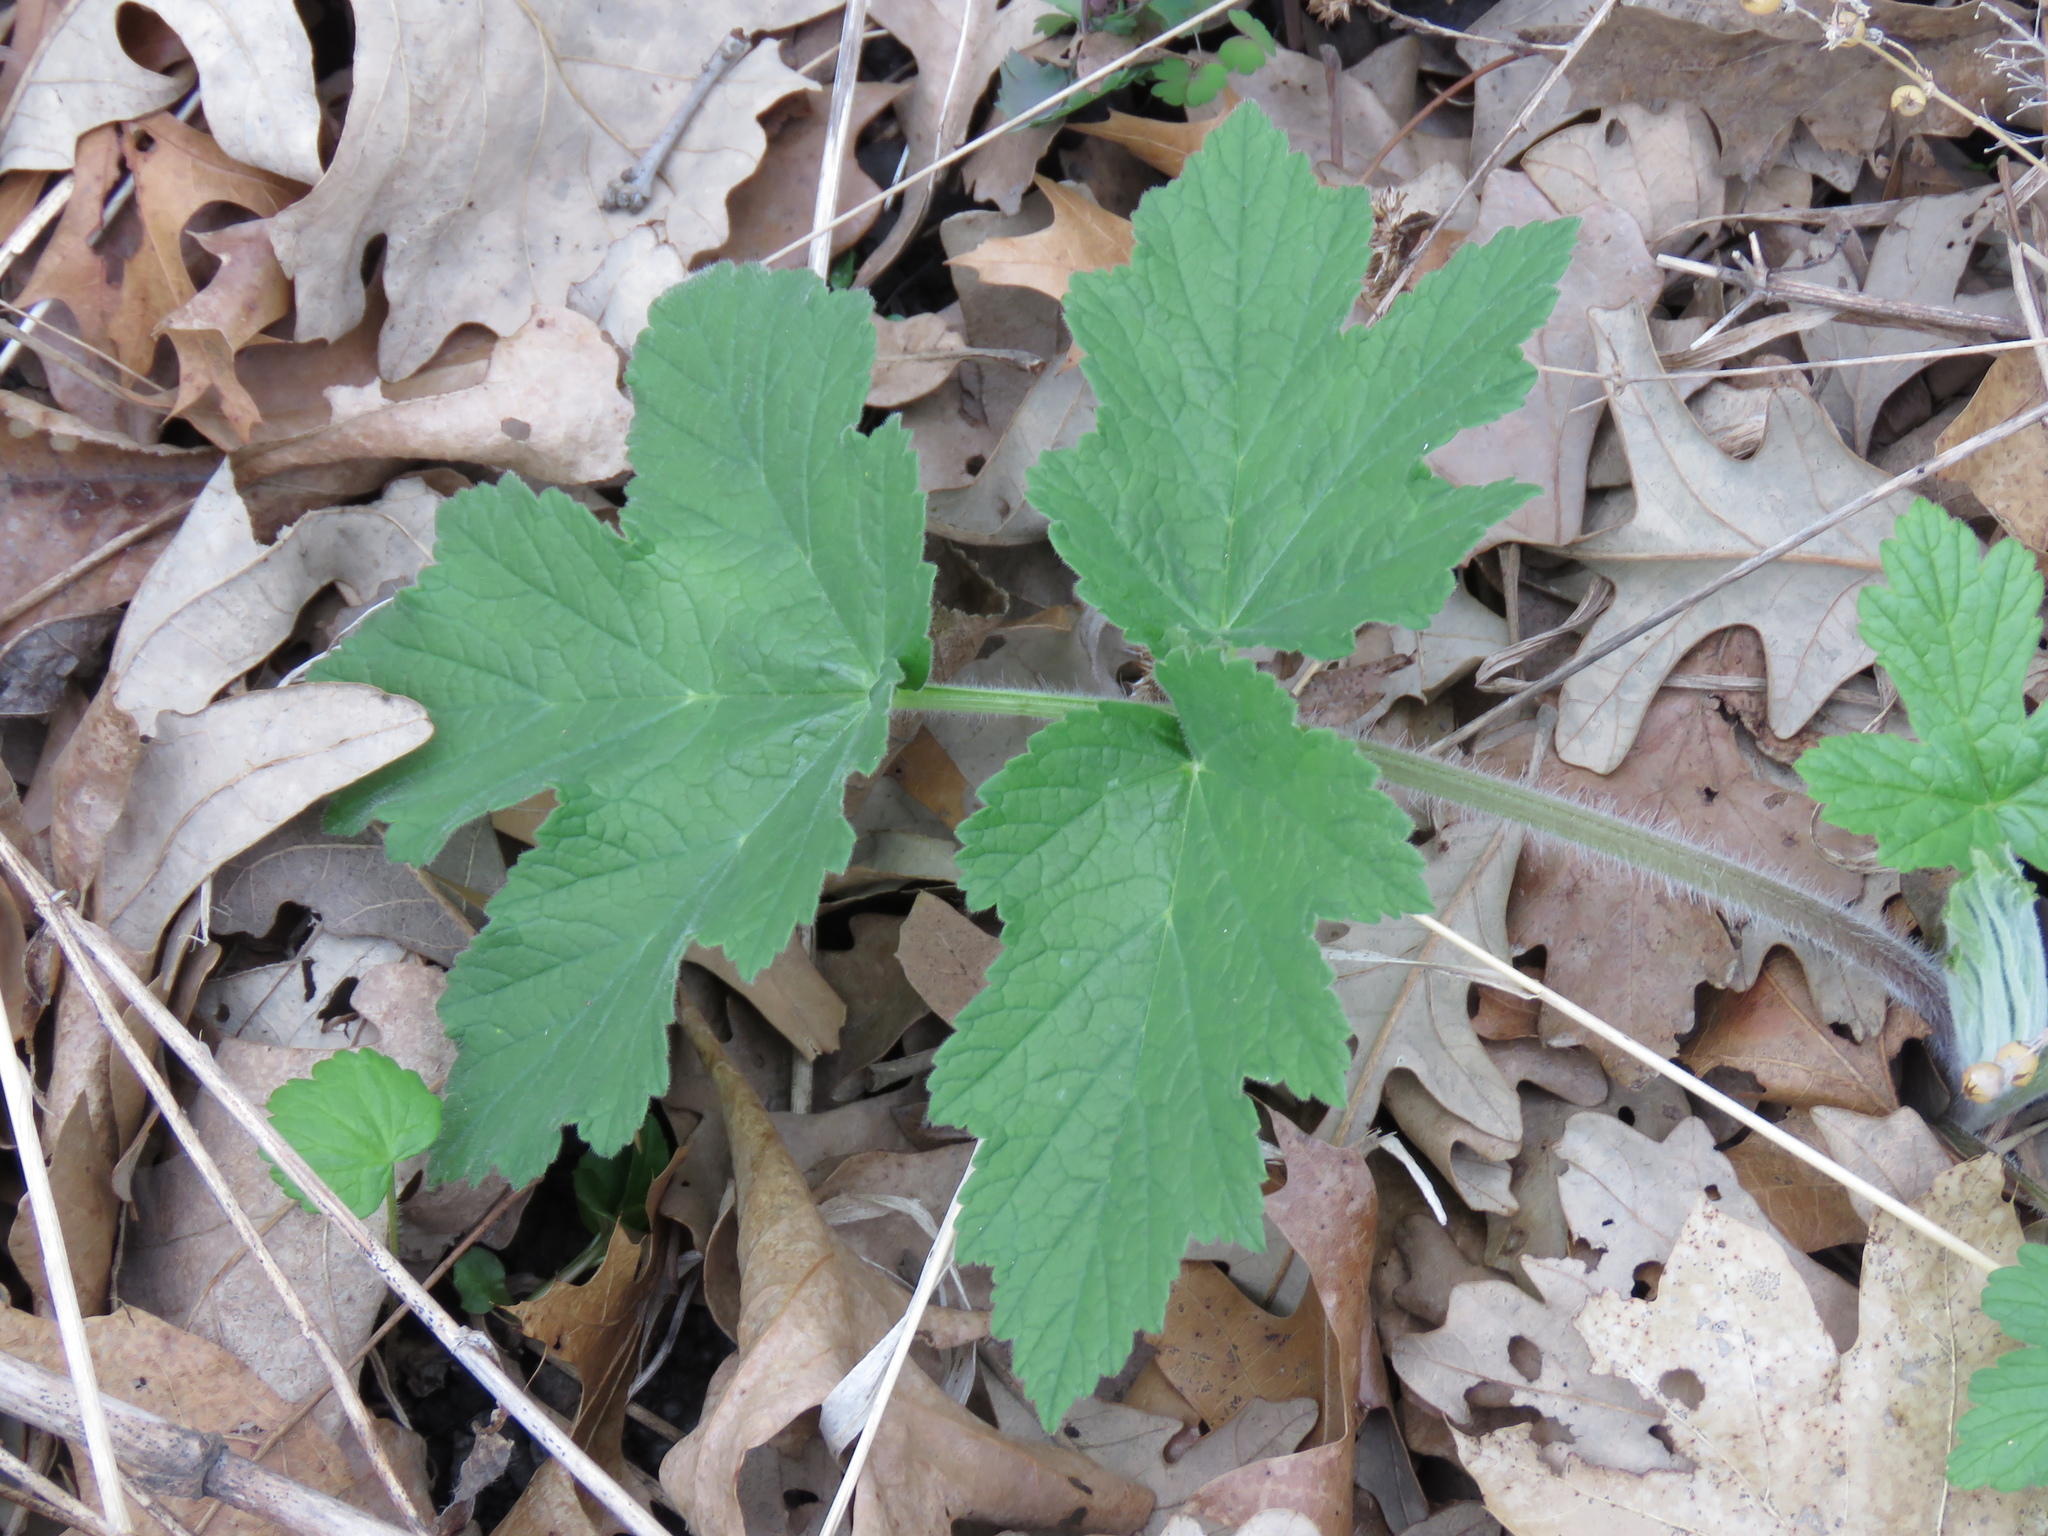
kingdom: Plantae
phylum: Tracheophyta
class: Magnoliopsida
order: Apiales
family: Apiaceae
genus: Heracleum
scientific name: Heracleum maximum
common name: American cow parsnip
